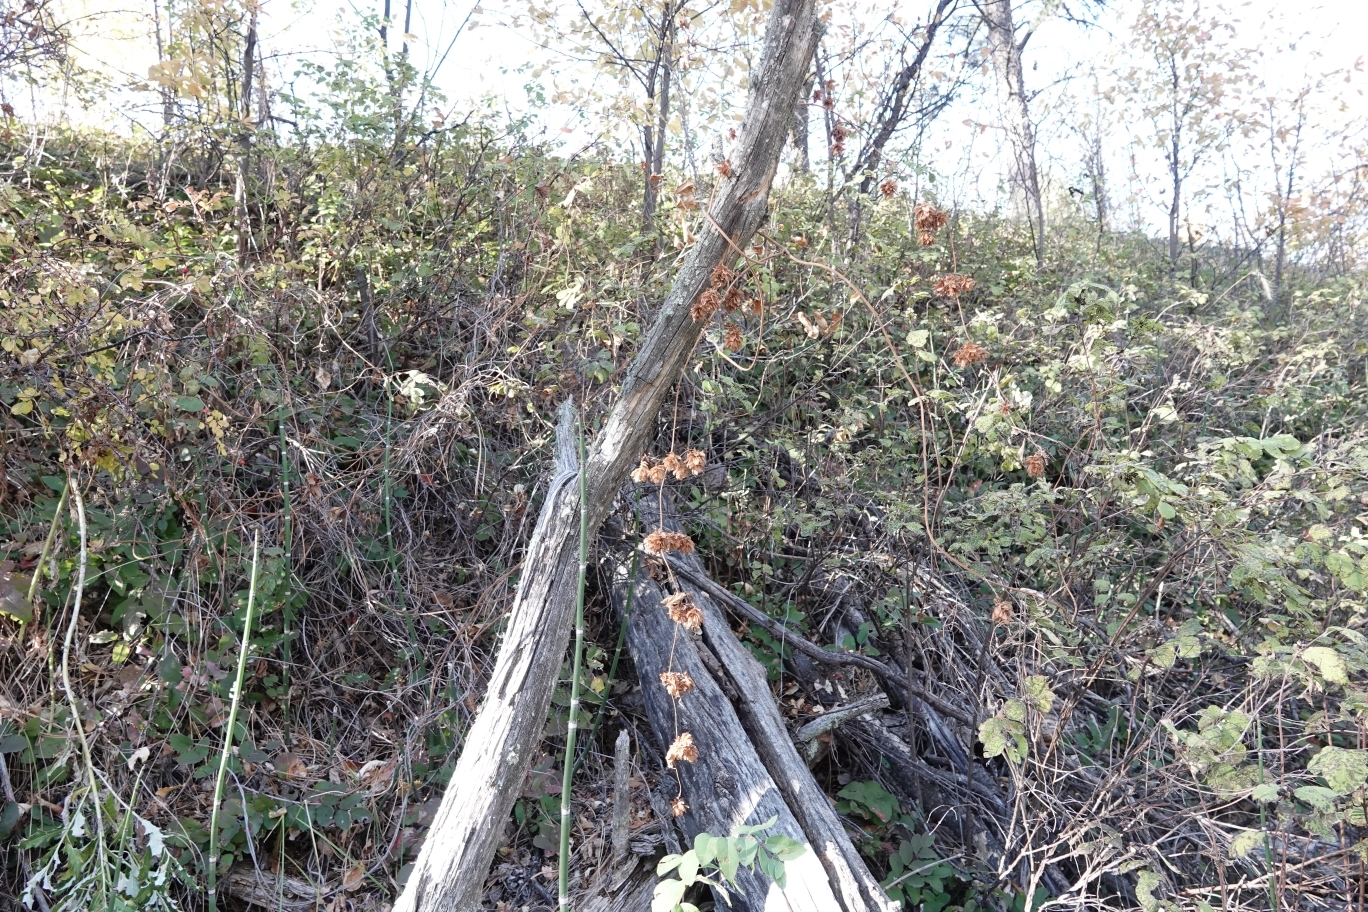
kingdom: Plantae
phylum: Tracheophyta
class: Magnoliopsida
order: Rosales
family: Cannabaceae
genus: Humulus
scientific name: Humulus lupulus
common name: Hop
